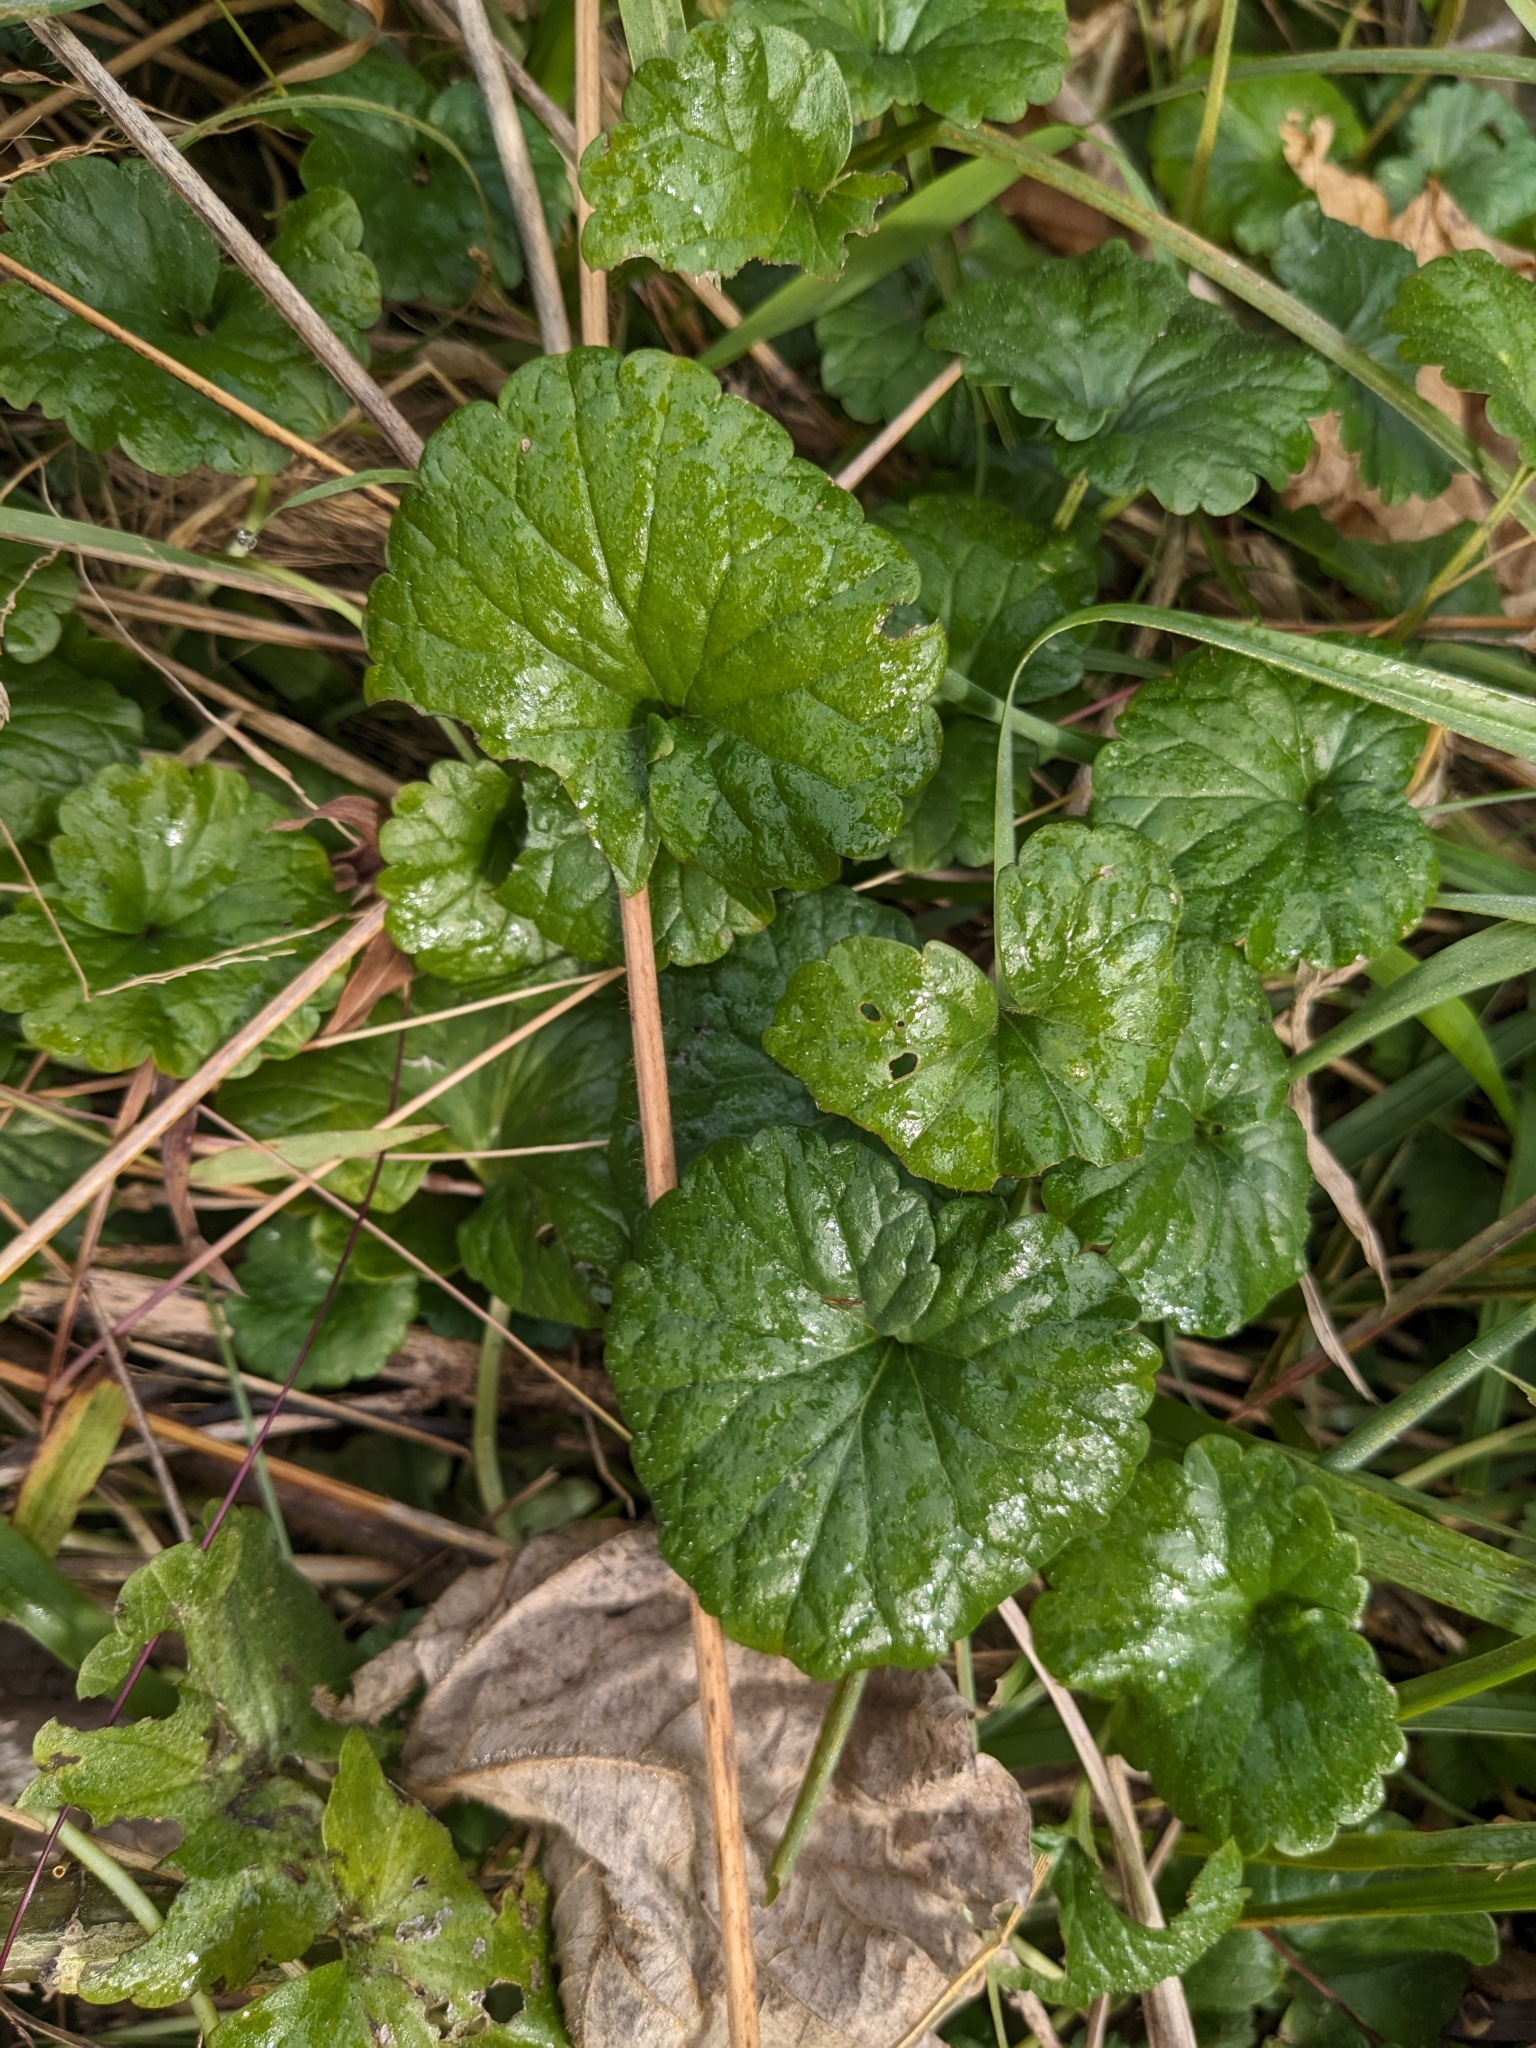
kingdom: Plantae
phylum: Tracheophyta
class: Magnoliopsida
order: Lamiales
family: Lamiaceae
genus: Glechoma
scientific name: Glechoma hederacea
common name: Ground ivy
